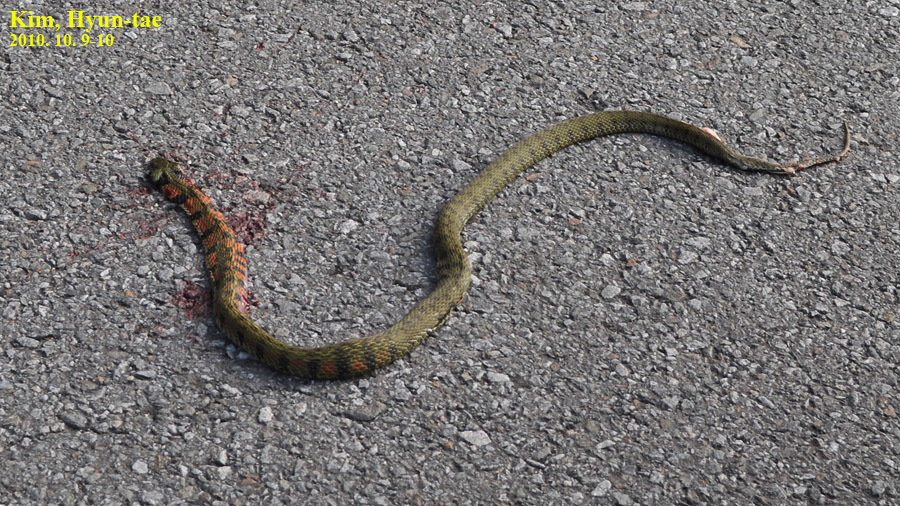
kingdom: Animalia
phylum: Chordata
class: Squamata
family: Colubridae
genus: Rhabdophis
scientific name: Rhabdophis tigrinus
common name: Tiger keelback
